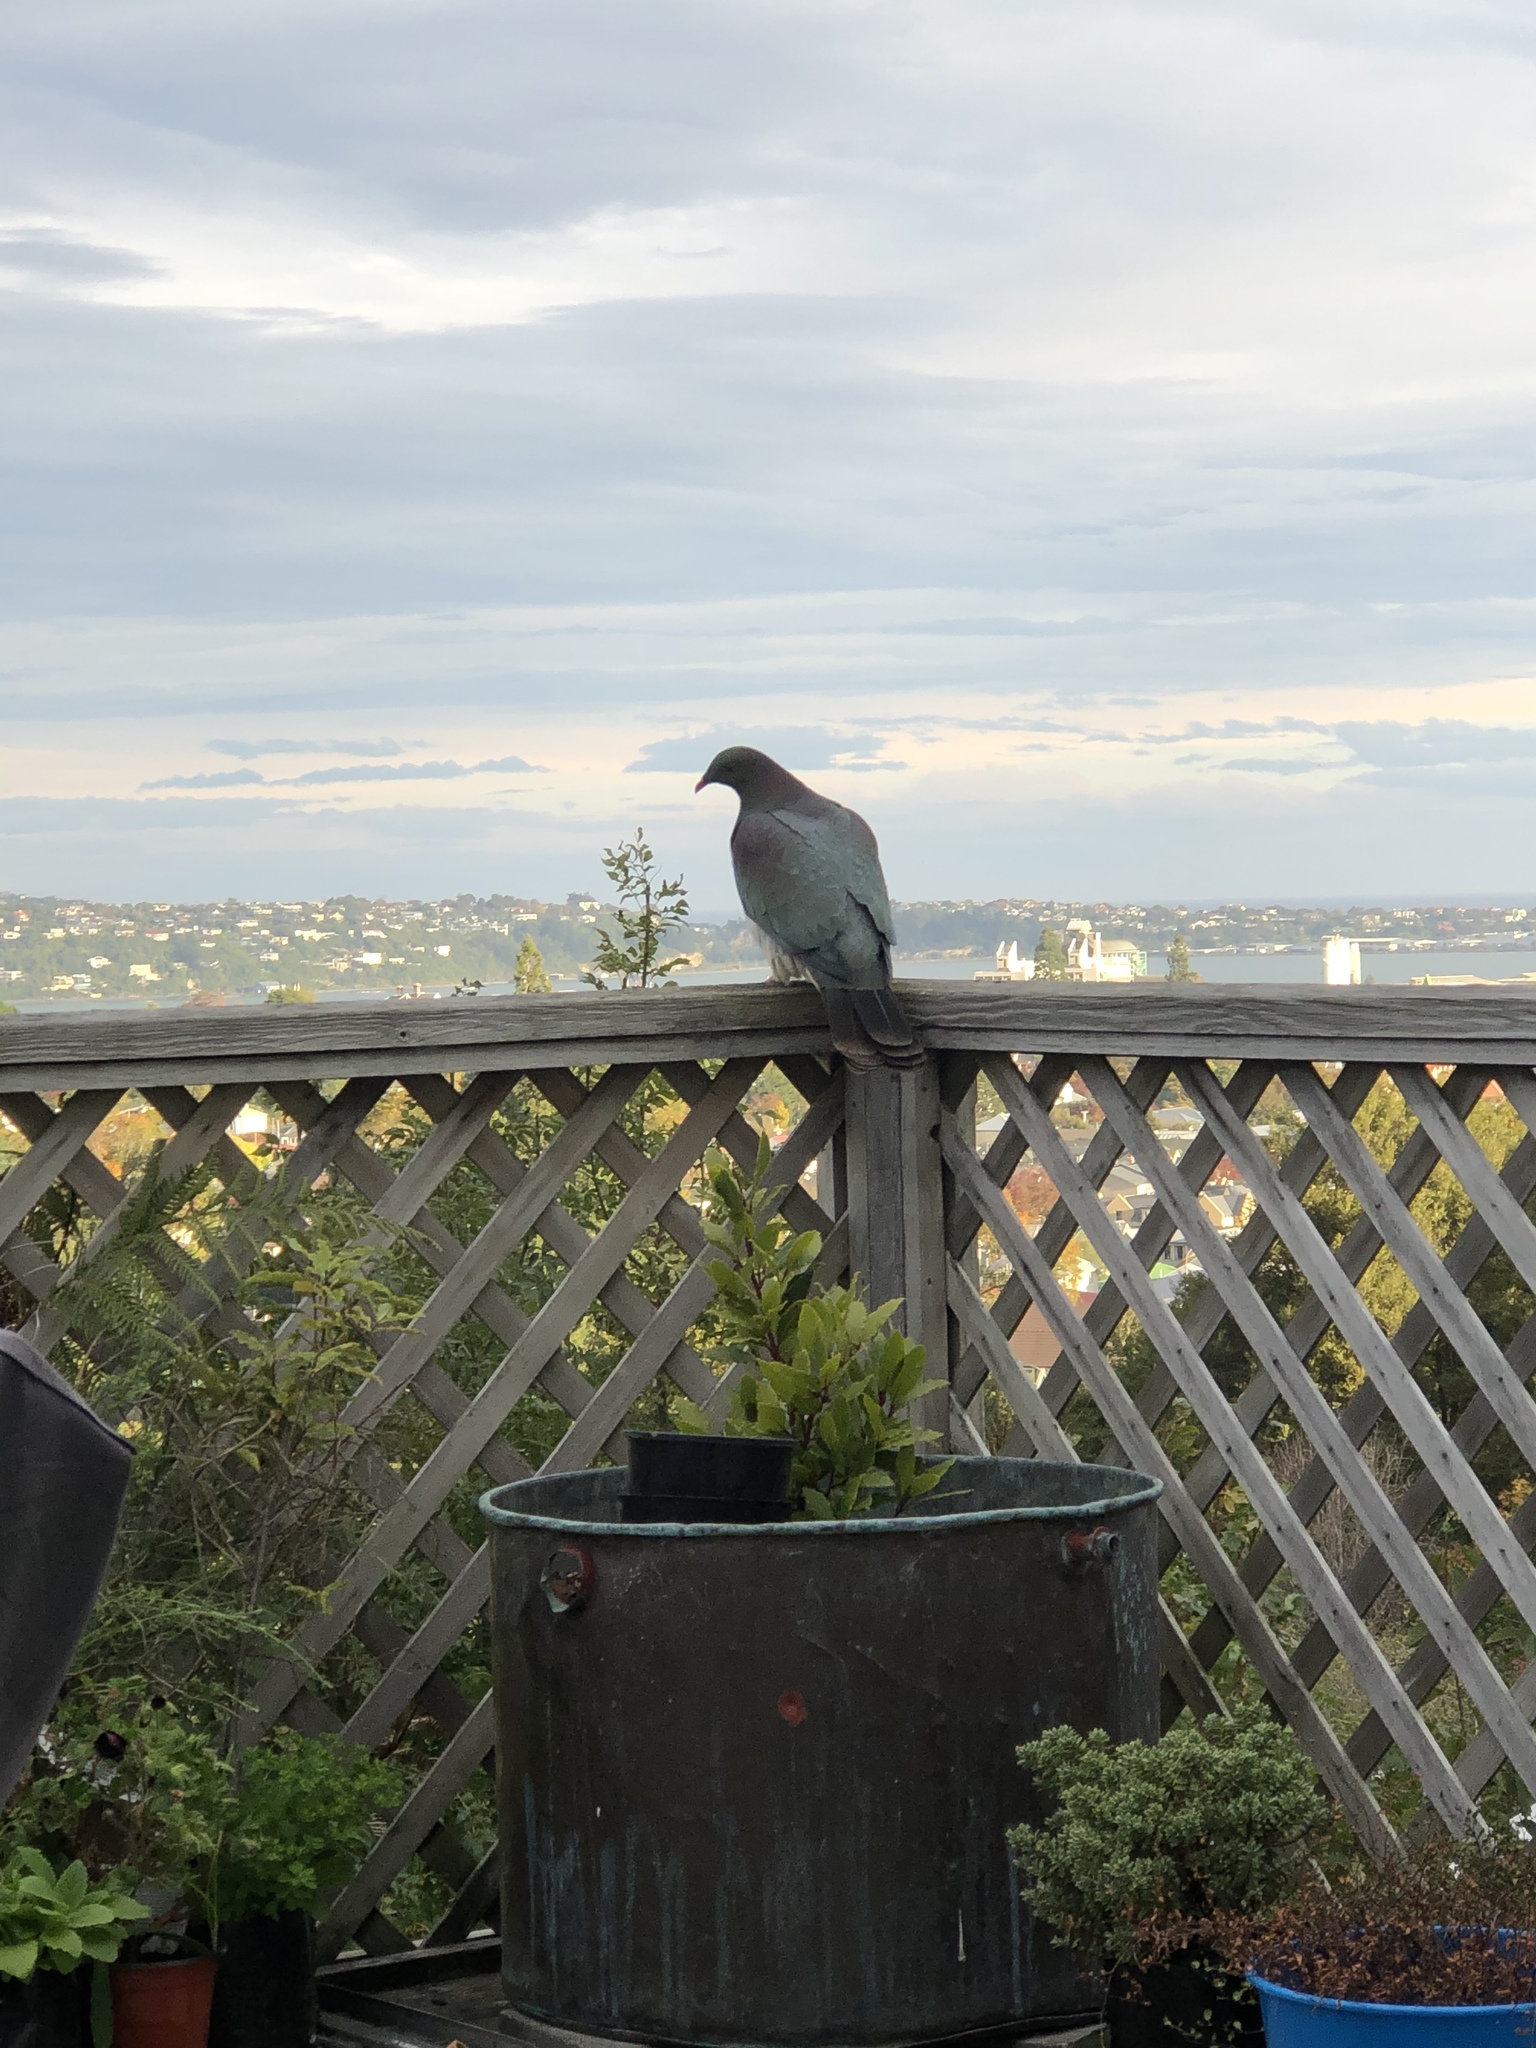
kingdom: Animalia
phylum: Chordata
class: Aves
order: Columbiformes
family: Columbidae
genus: Hemiphaga
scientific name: Hemiphaga novaeseelandiae
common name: New zealand pigeon
